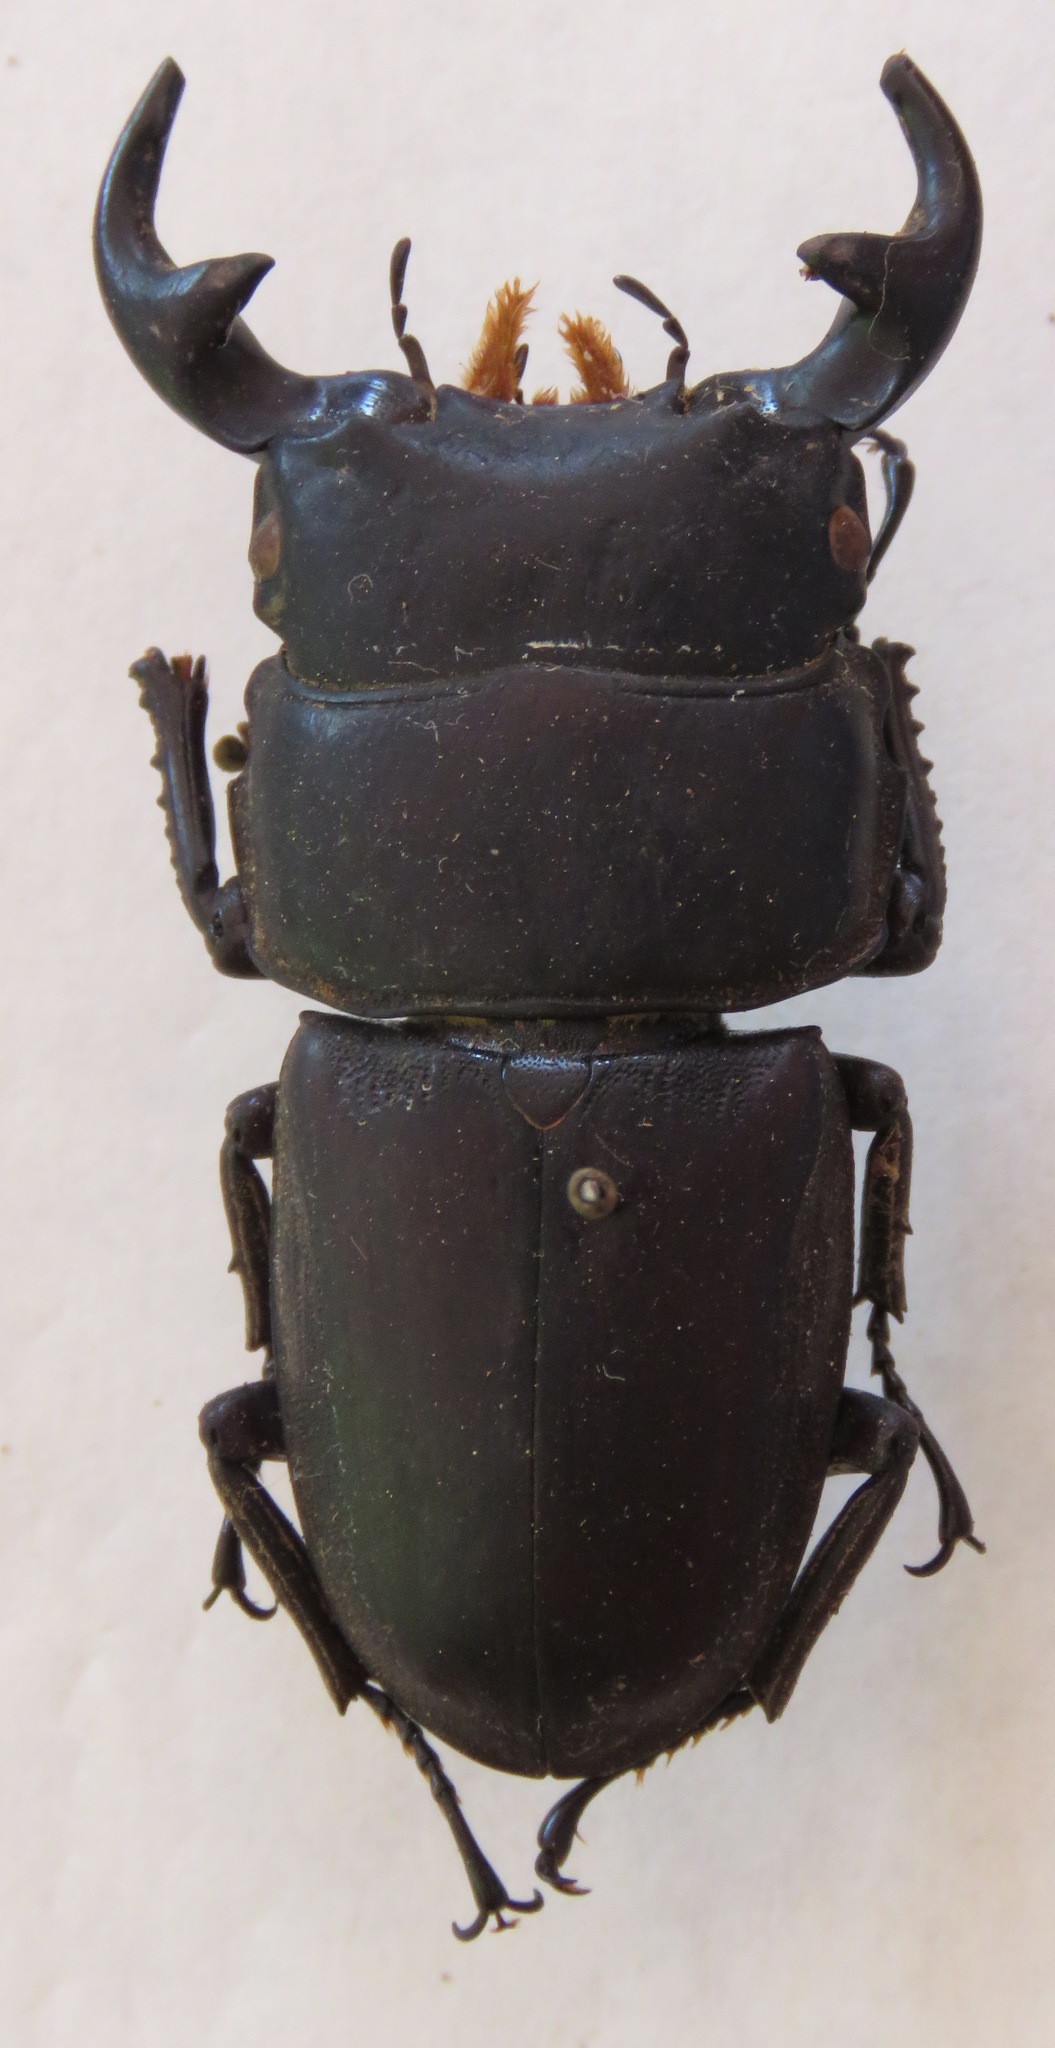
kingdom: Animalia
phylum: Arthropoda
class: Insecta
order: Coleoptera
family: Lucanidae
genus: Dorcus
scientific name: Dorcus curvidens
